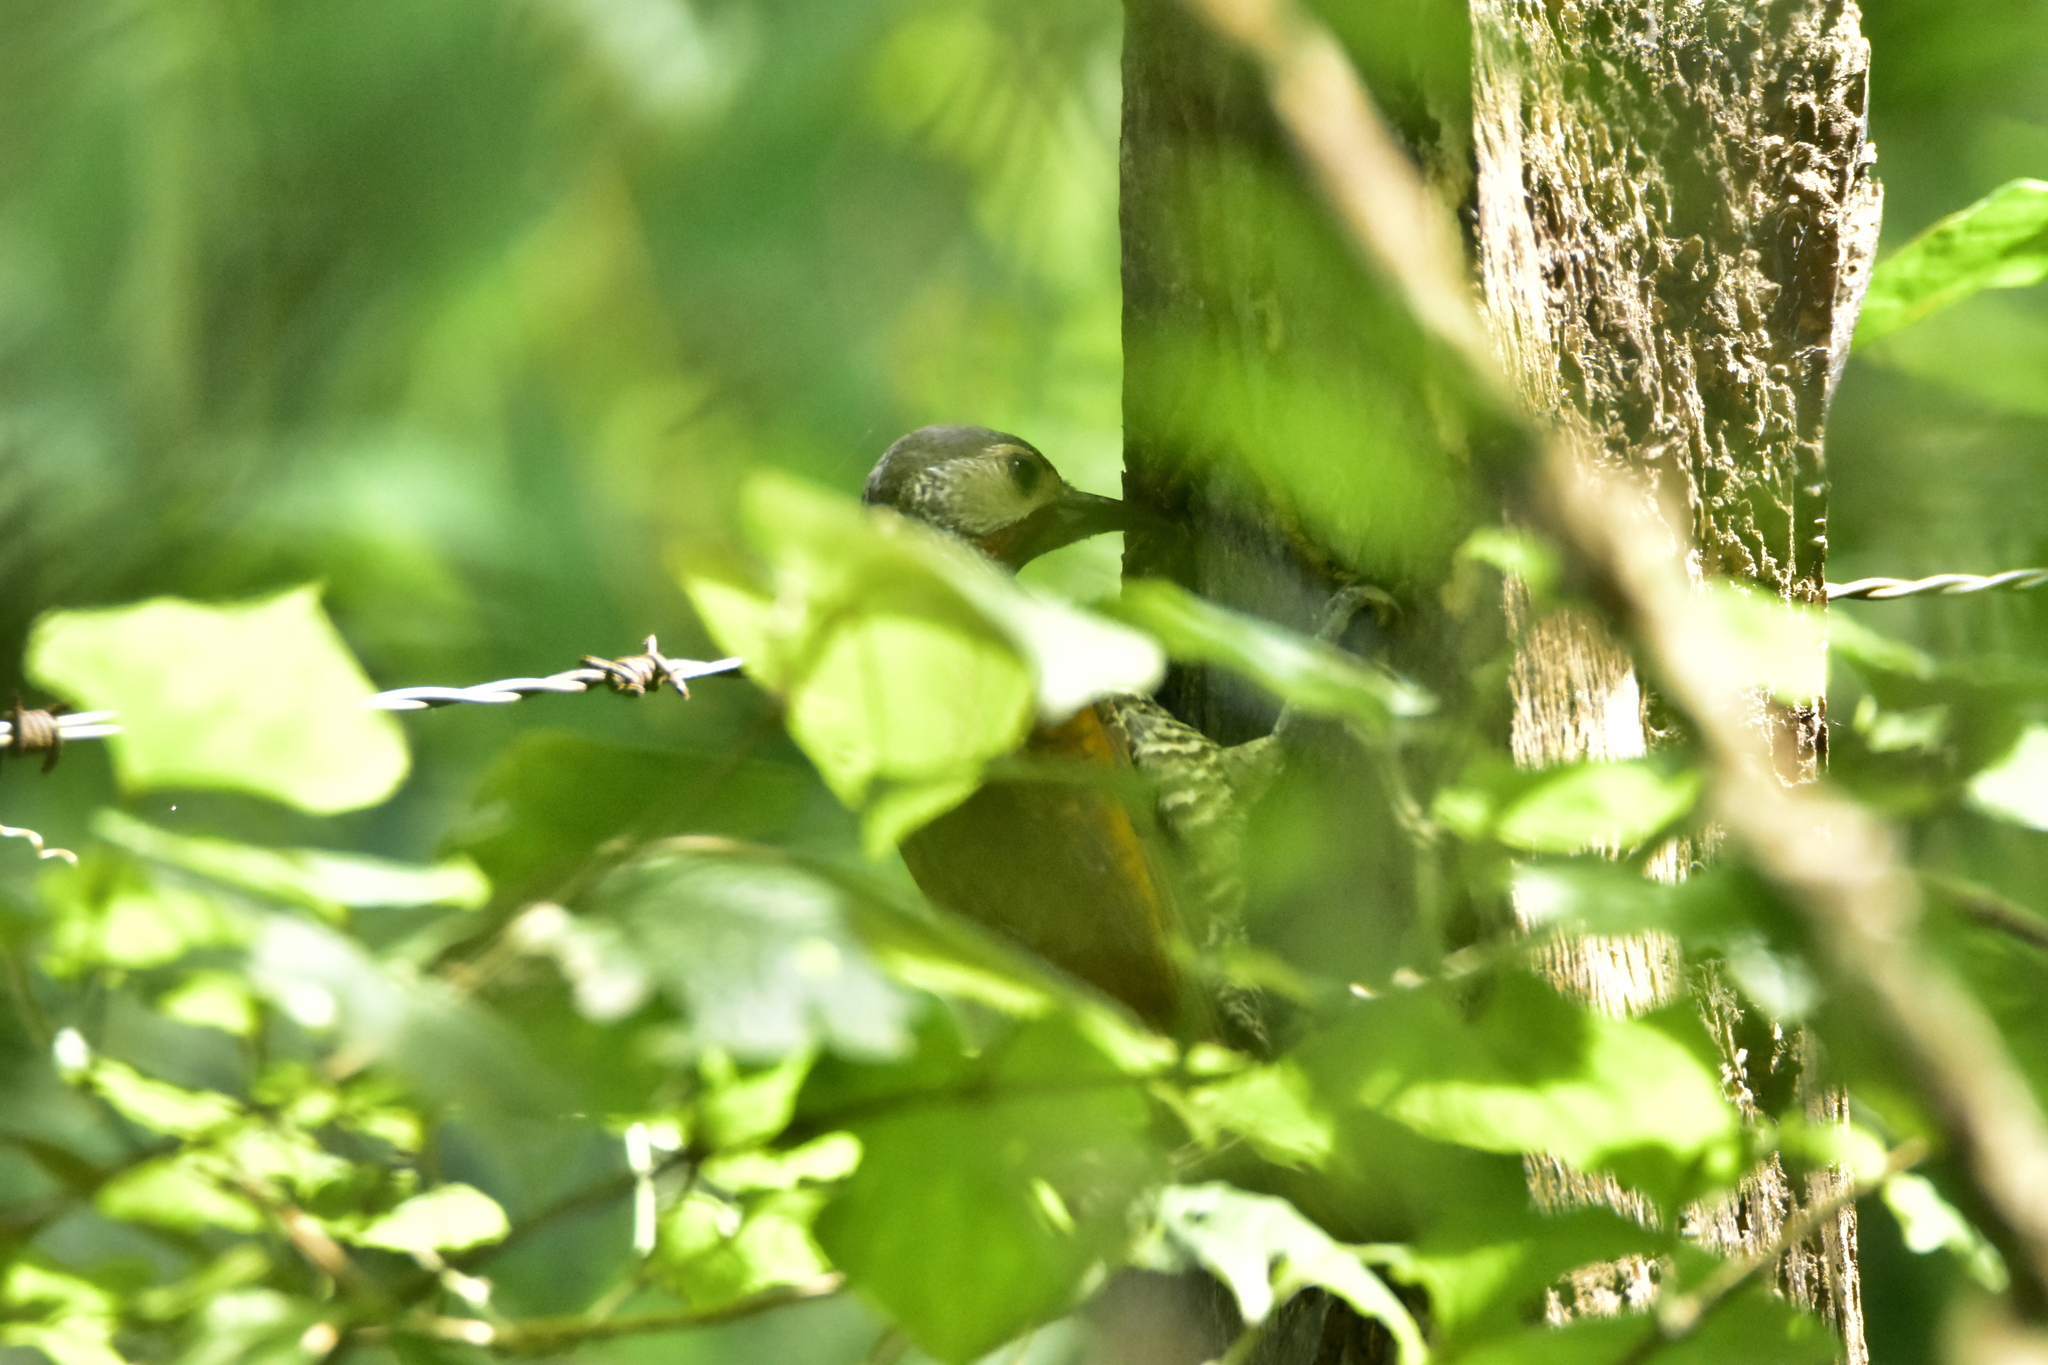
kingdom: Animalia
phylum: Chordata
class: Aves
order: Piciformes
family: Picidae
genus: Colaptes
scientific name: Colaptes auricularis
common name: Grey-crowned woodpecker
